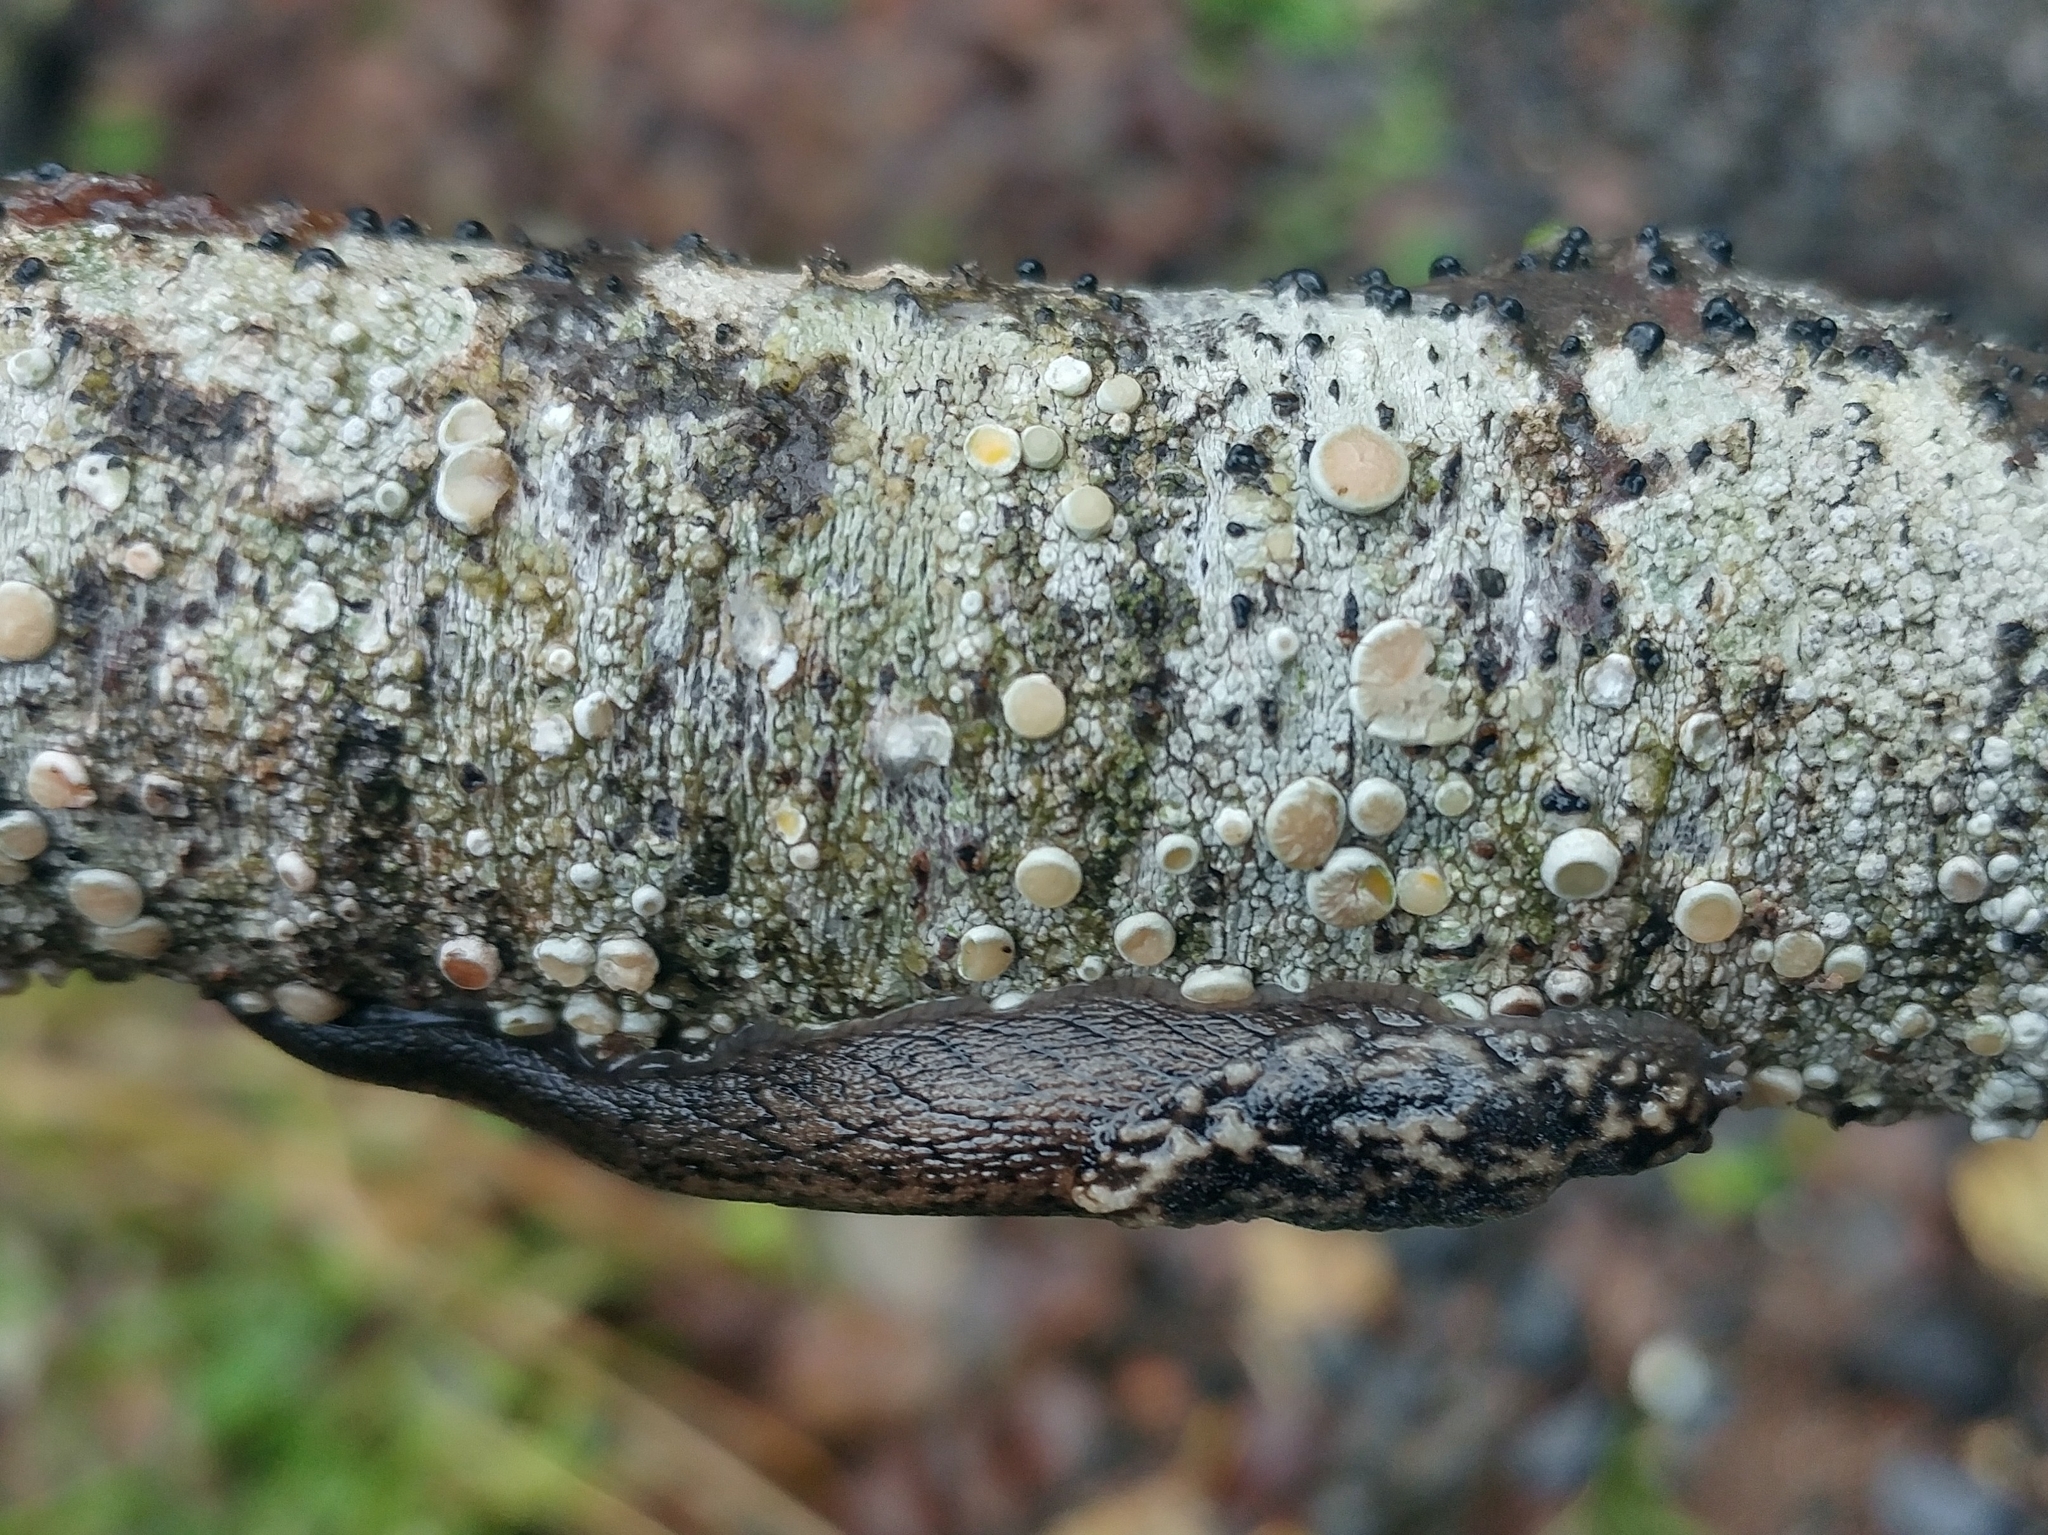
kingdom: Animalia
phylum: Mollusca
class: Gastropoda
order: Stylommatophora
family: Ariolimacidae
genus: Prophysaon
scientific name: Prophysaon andersonii
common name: Reticulate taildropper
